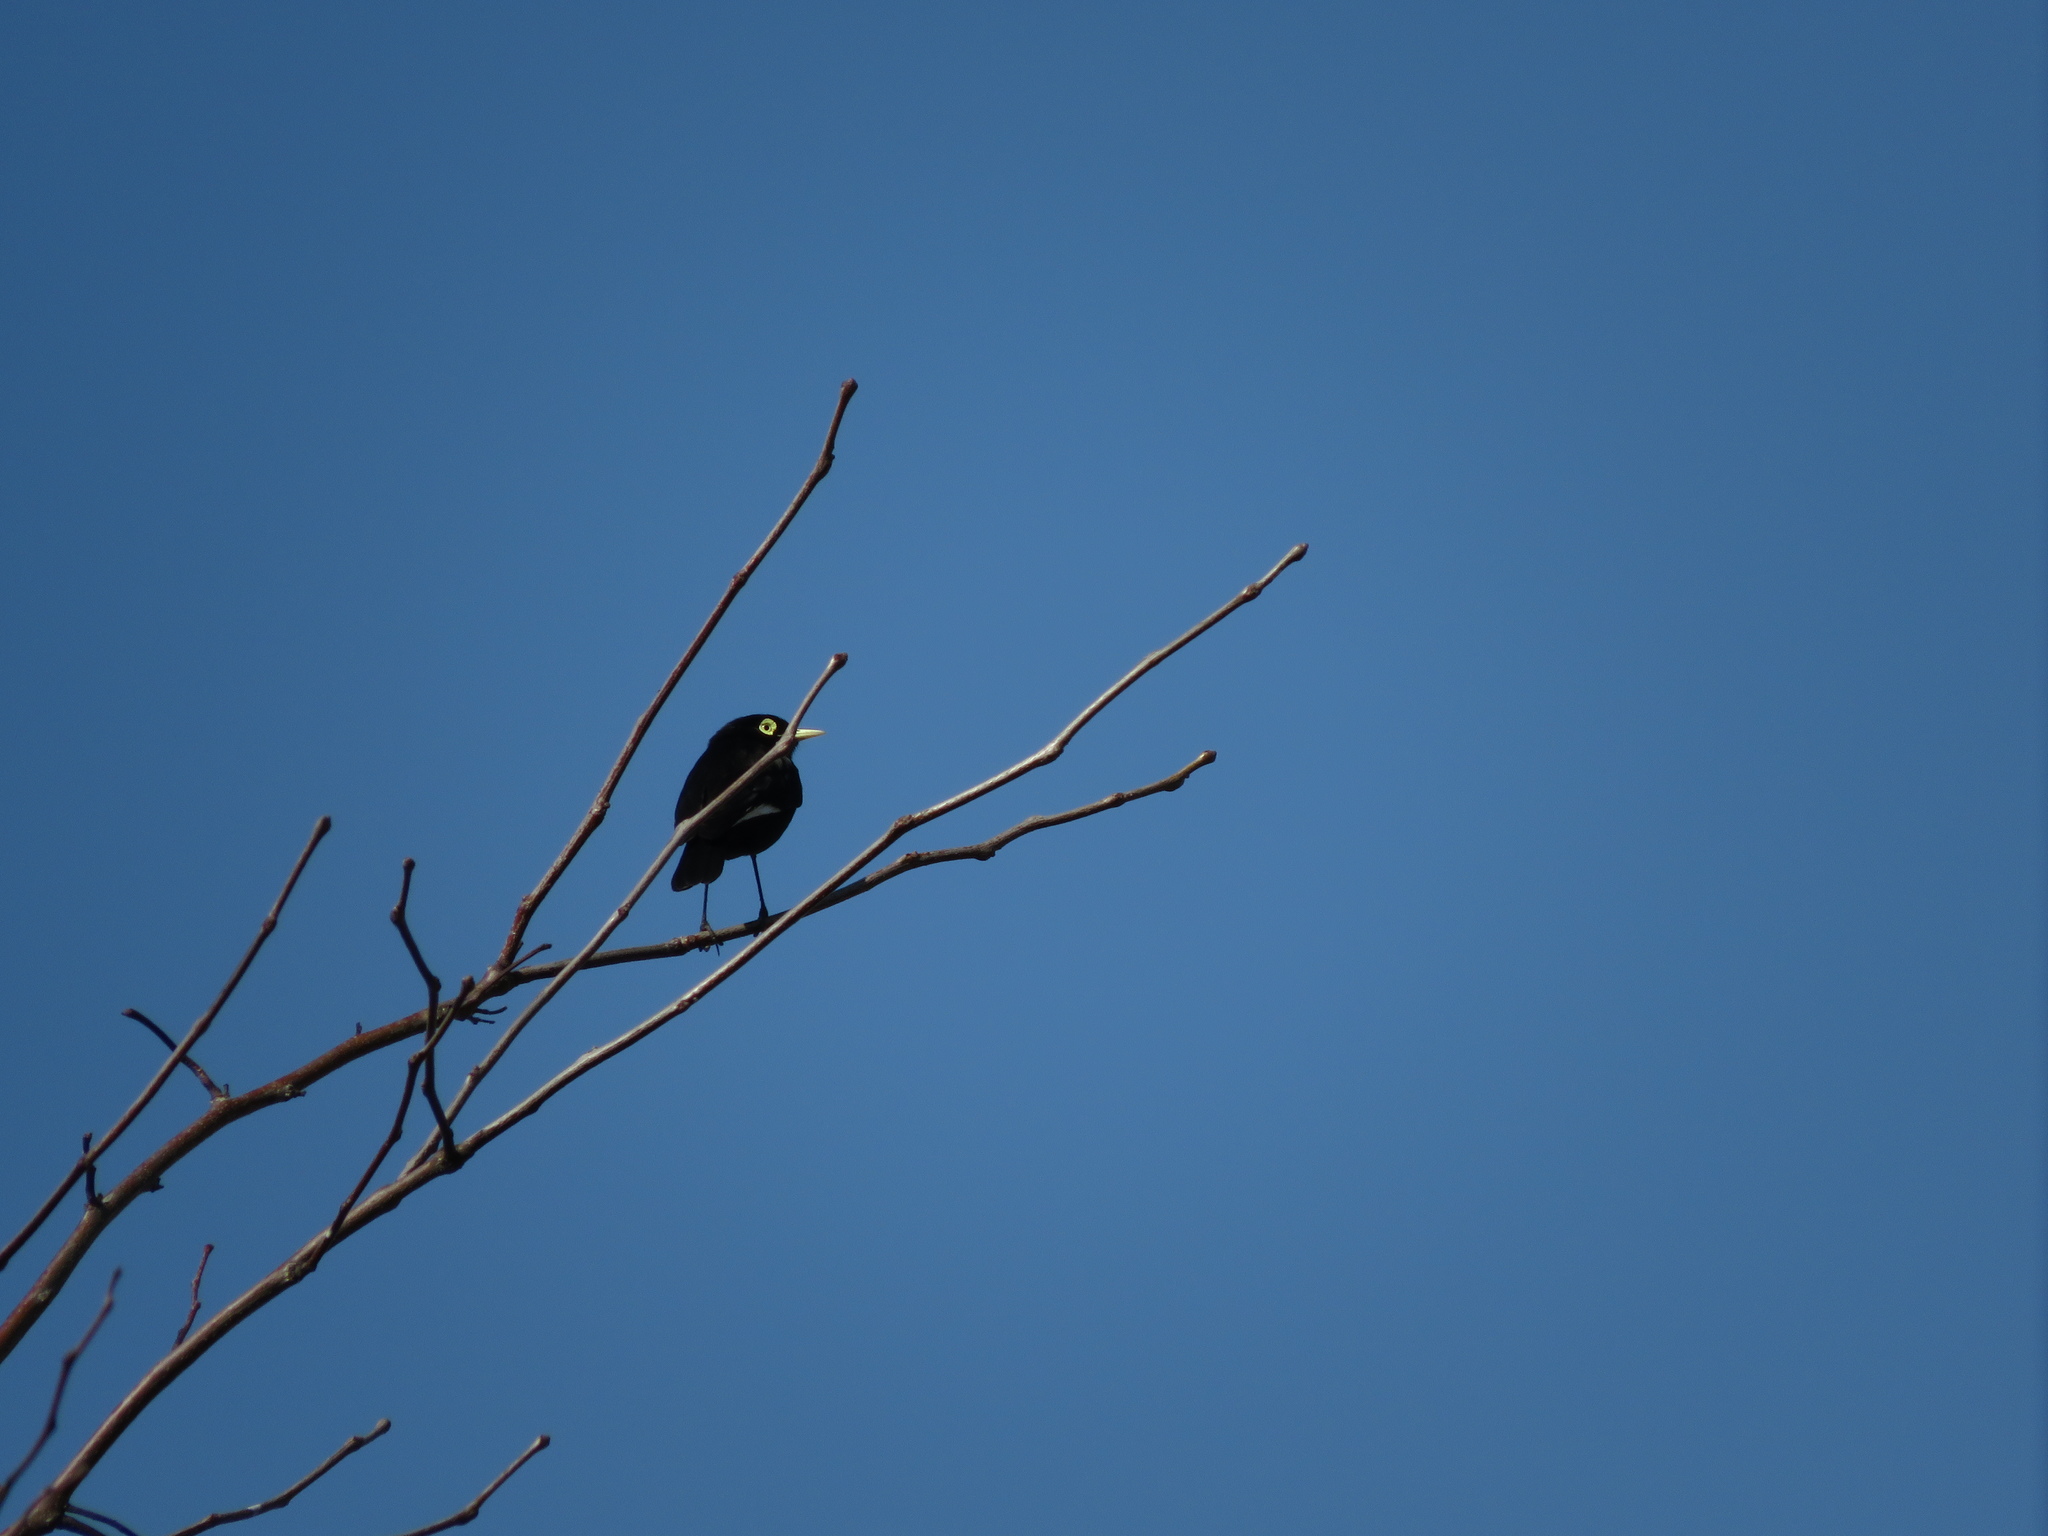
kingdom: Animalia
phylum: Chordata
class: Aves
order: Passeriformes
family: Tyrannidae
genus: Hymenops
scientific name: Hymenops perspicillatus
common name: Spectacled tyrant
